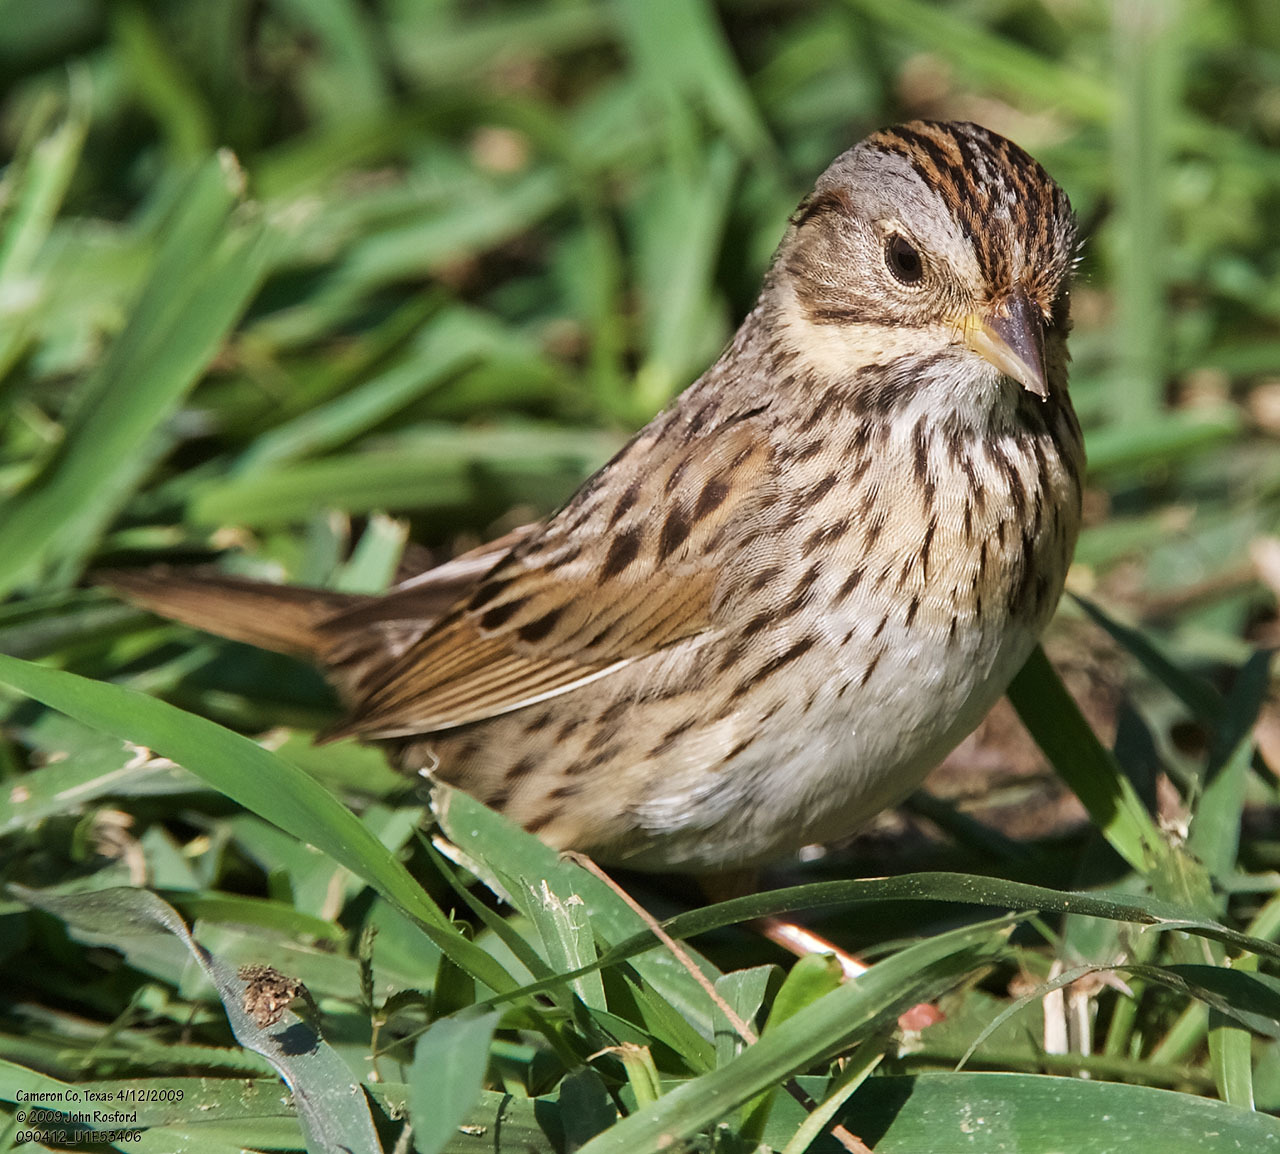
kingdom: Animalia
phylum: Chordata
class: Aves
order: Passeriformes
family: Passerellidae
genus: Melospiza
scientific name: Melospiza lincolnii
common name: Lincoln's sparrow
